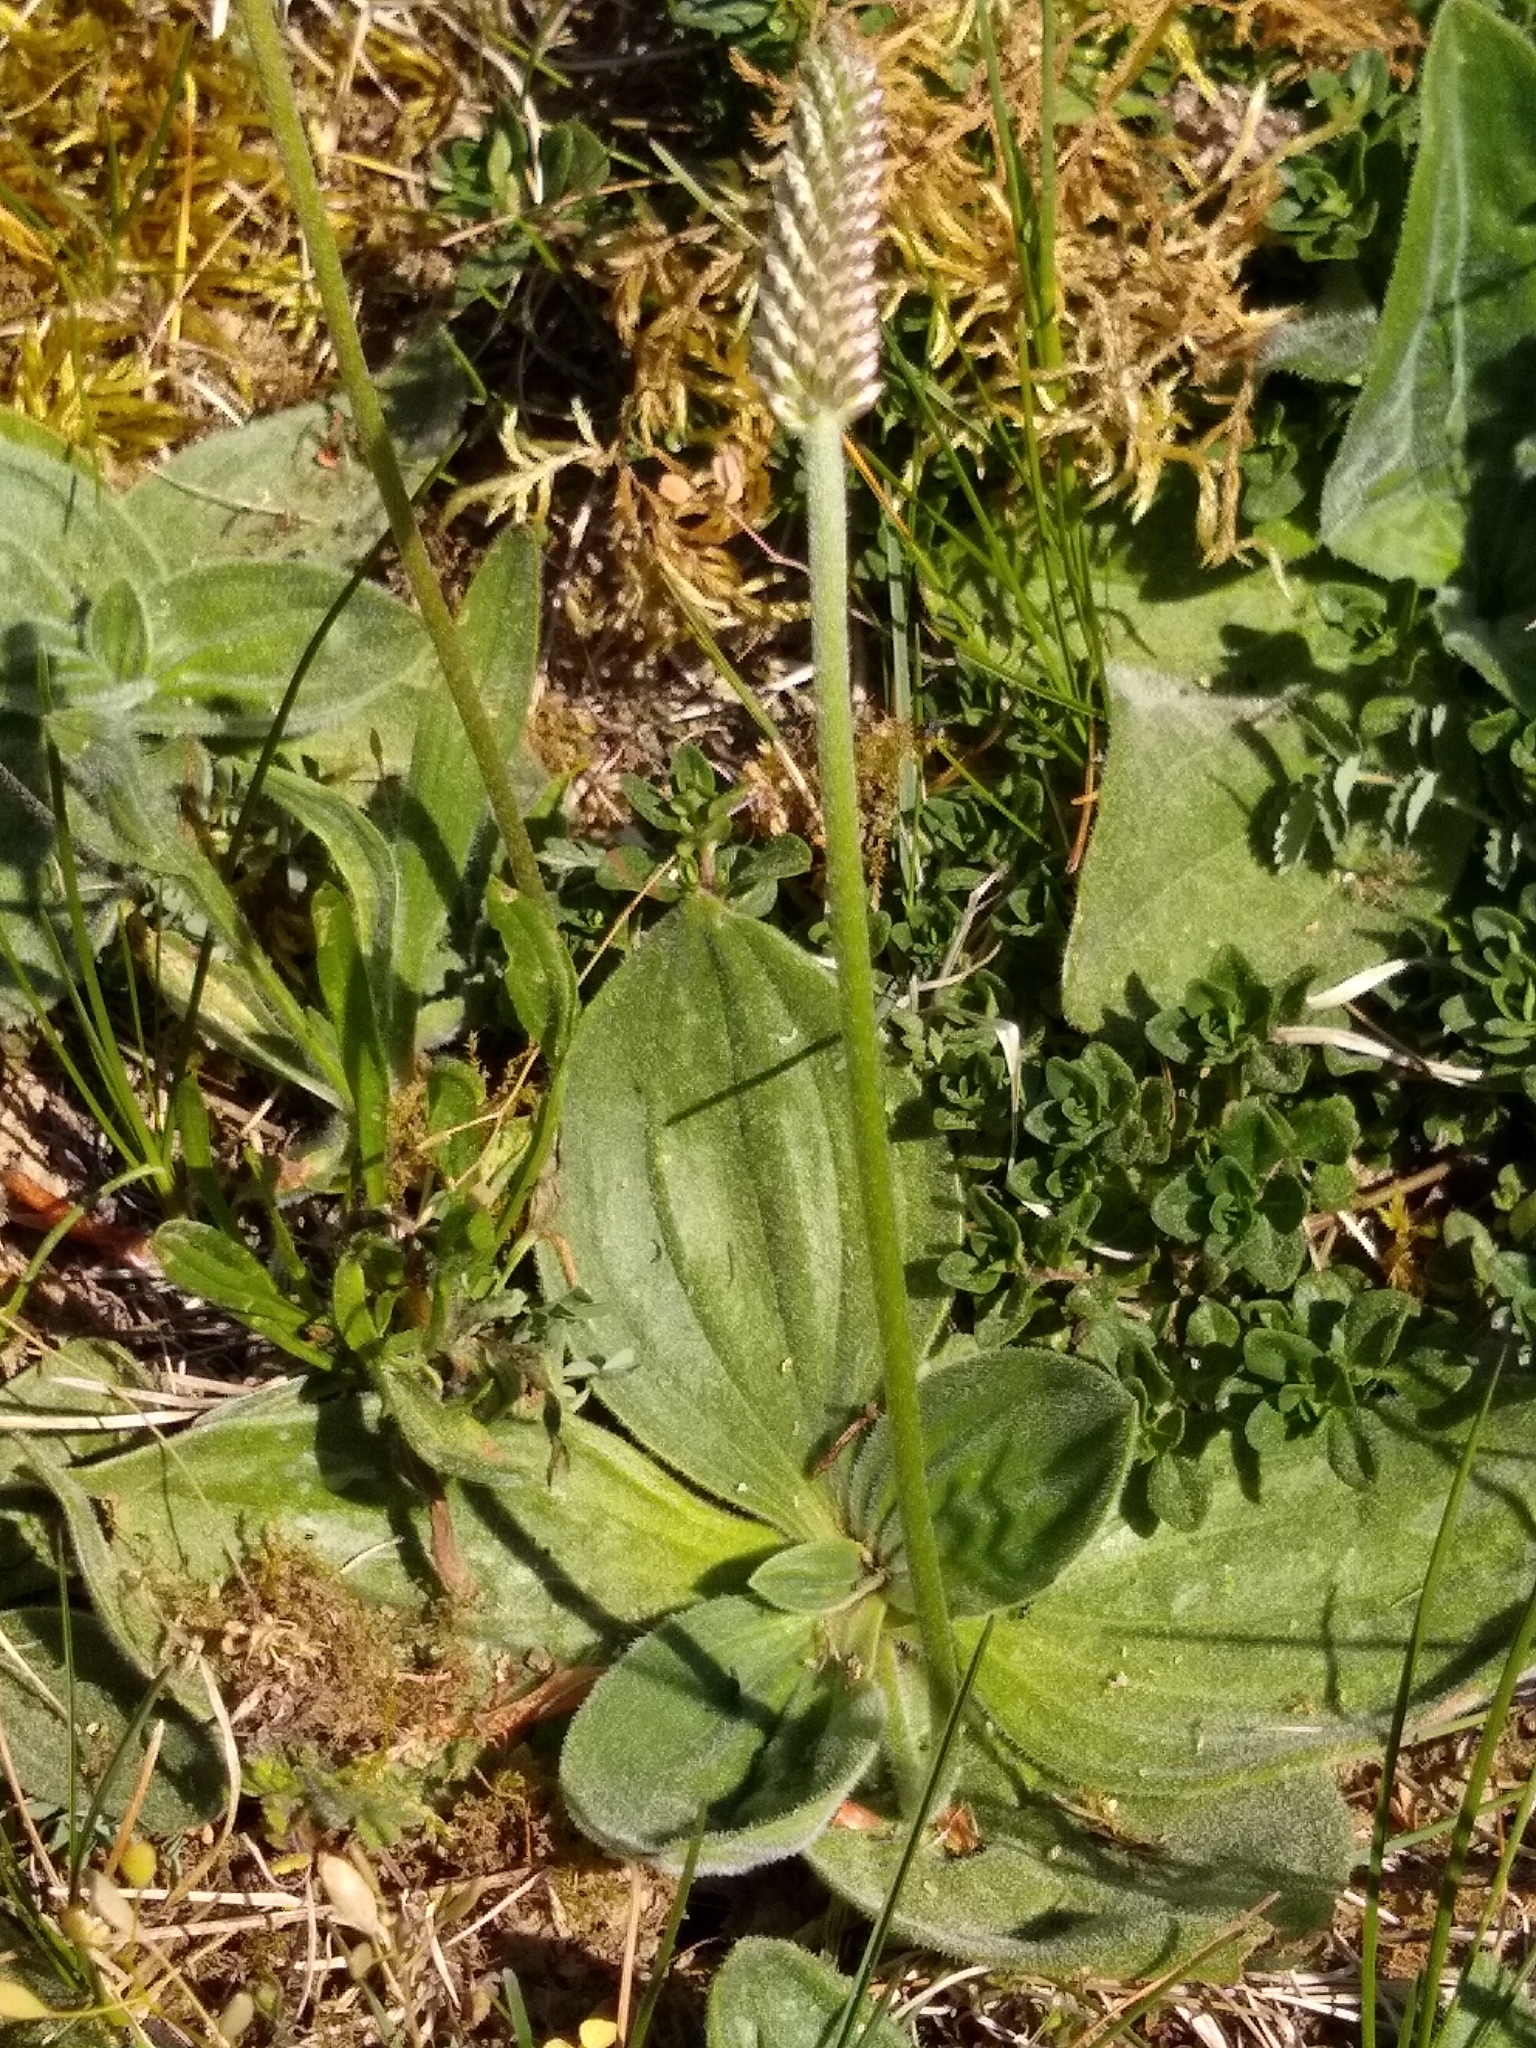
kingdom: Plantae
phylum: Tracheophyta
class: Magnoliopsida
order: Lamiales
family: Plantaginaceae
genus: Plantago
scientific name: Plantago media
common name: Hoary plantain
